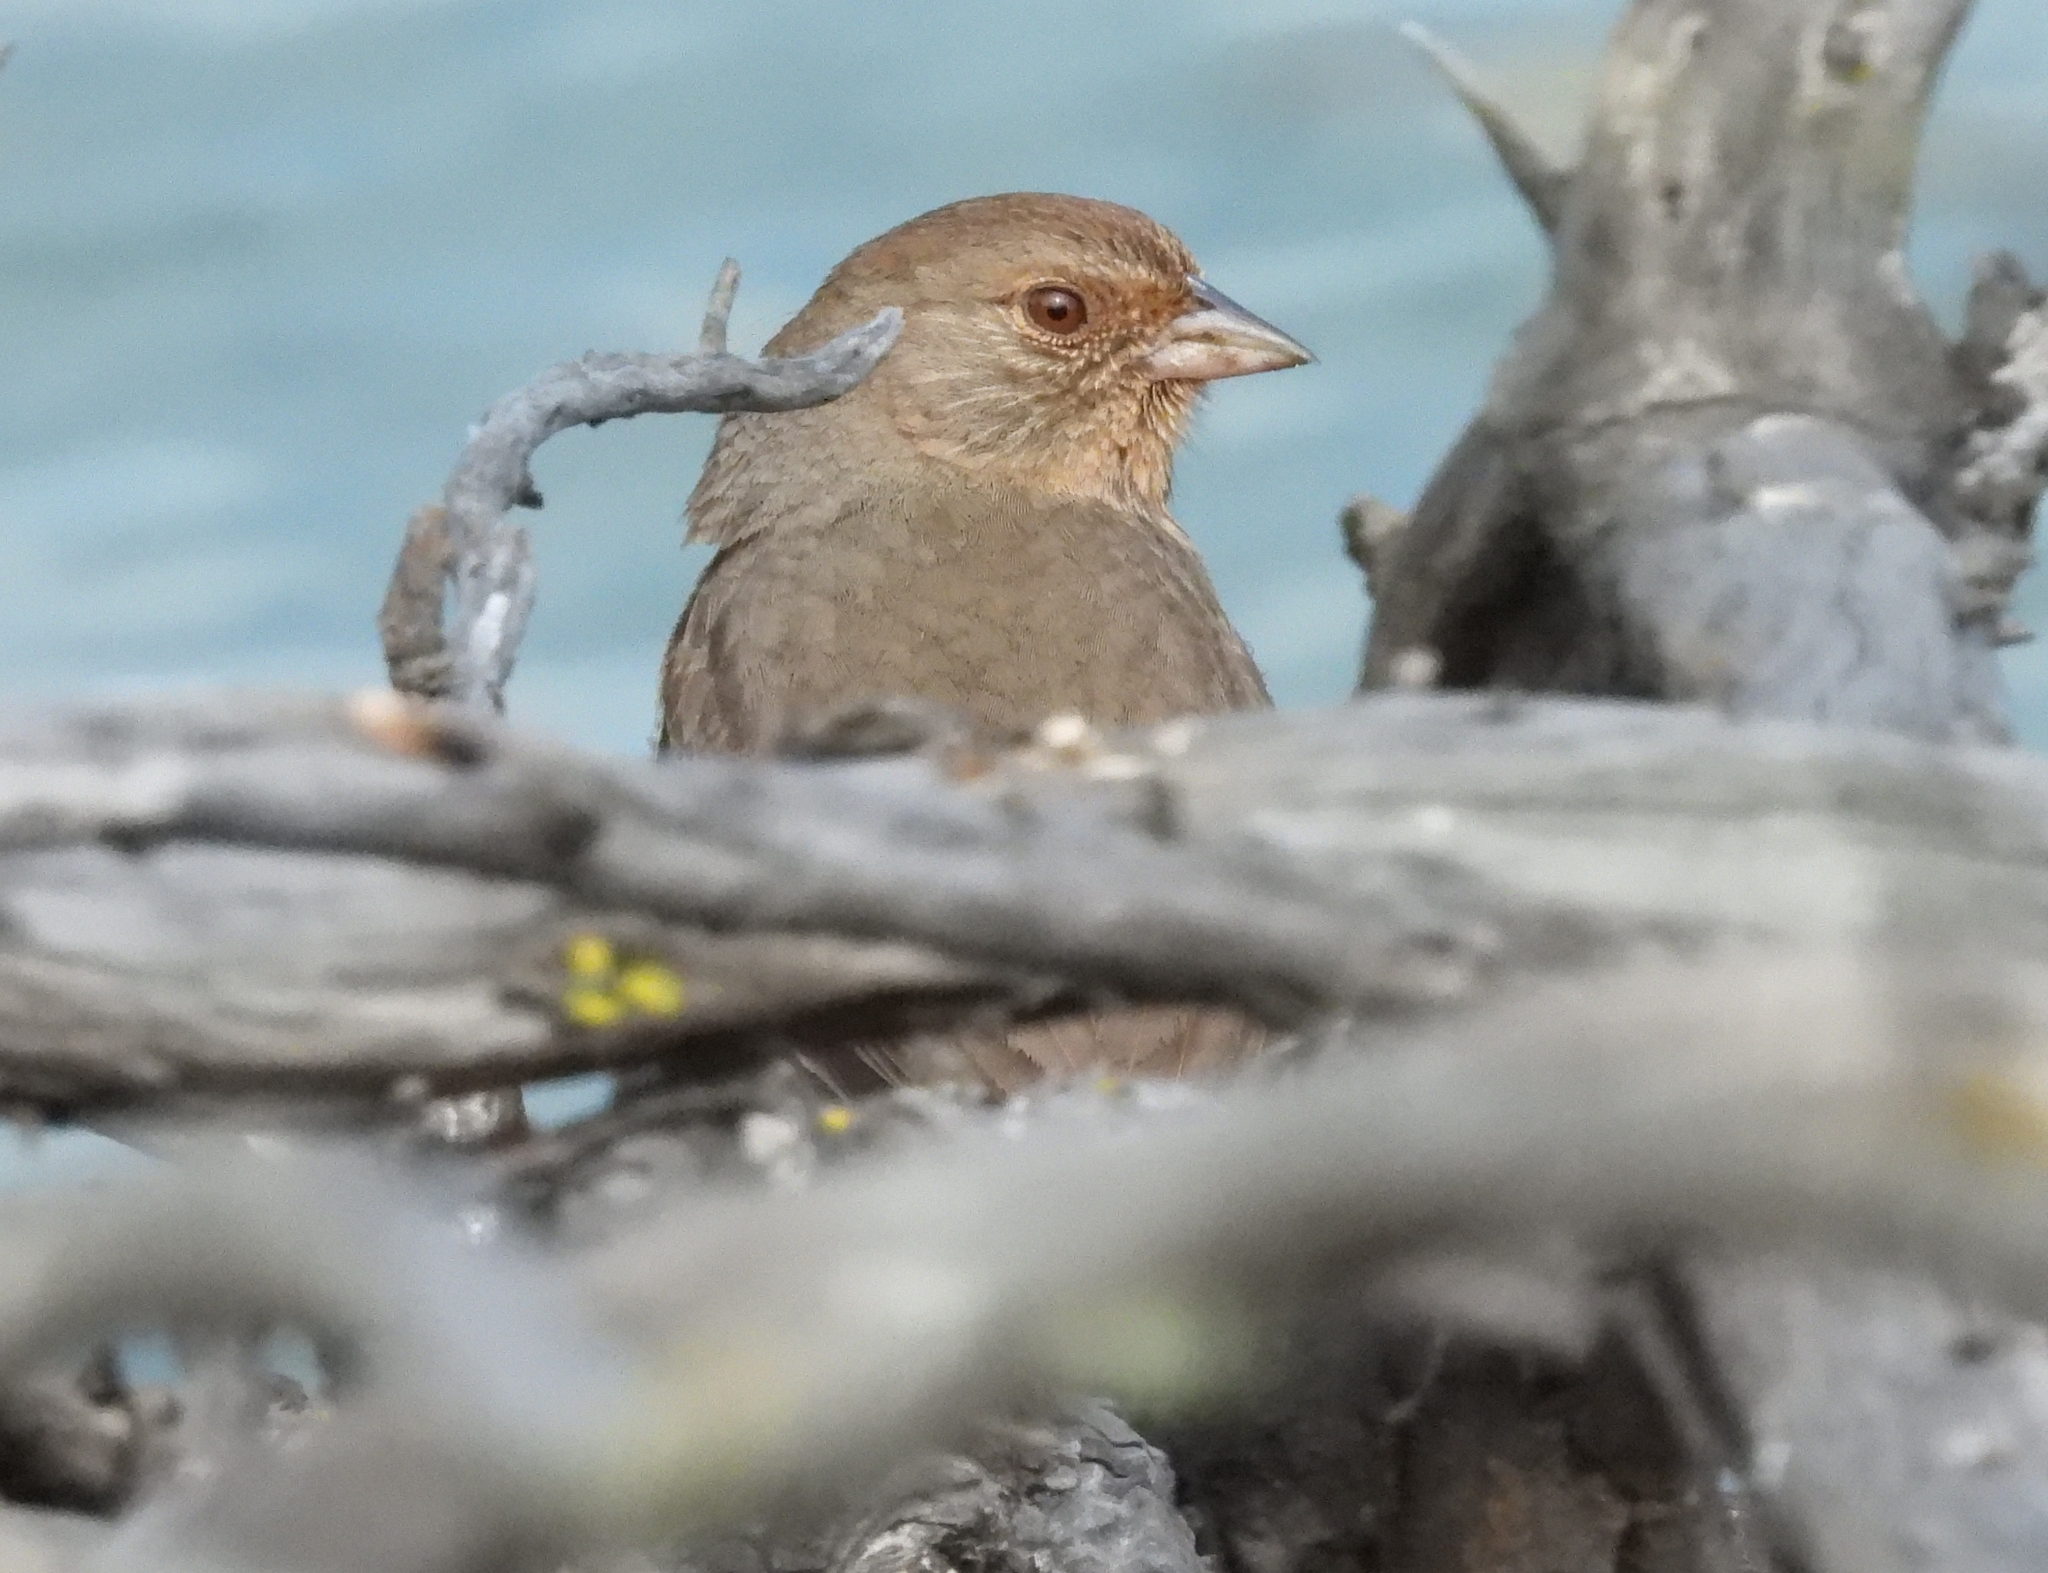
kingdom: Animalia
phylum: Chordata
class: Aves
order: Passeriformes
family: Passerellidae
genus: Melozone
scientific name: Melozone crissalis
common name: California towhee
